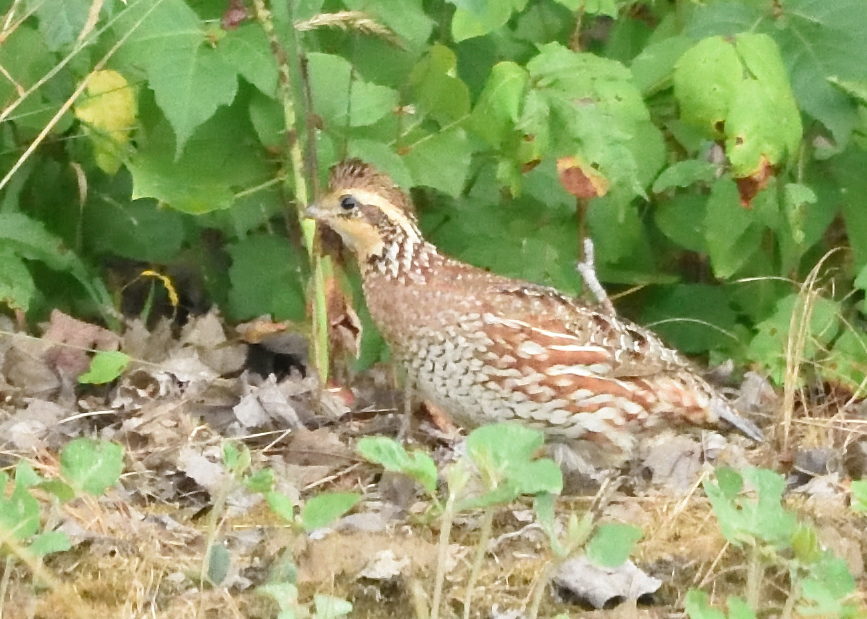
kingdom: Animalia
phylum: Chordata
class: Aves
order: Galliformes
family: Odontophoridae
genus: Colinus
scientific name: Colinus virginianus
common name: Northern bobwhite
